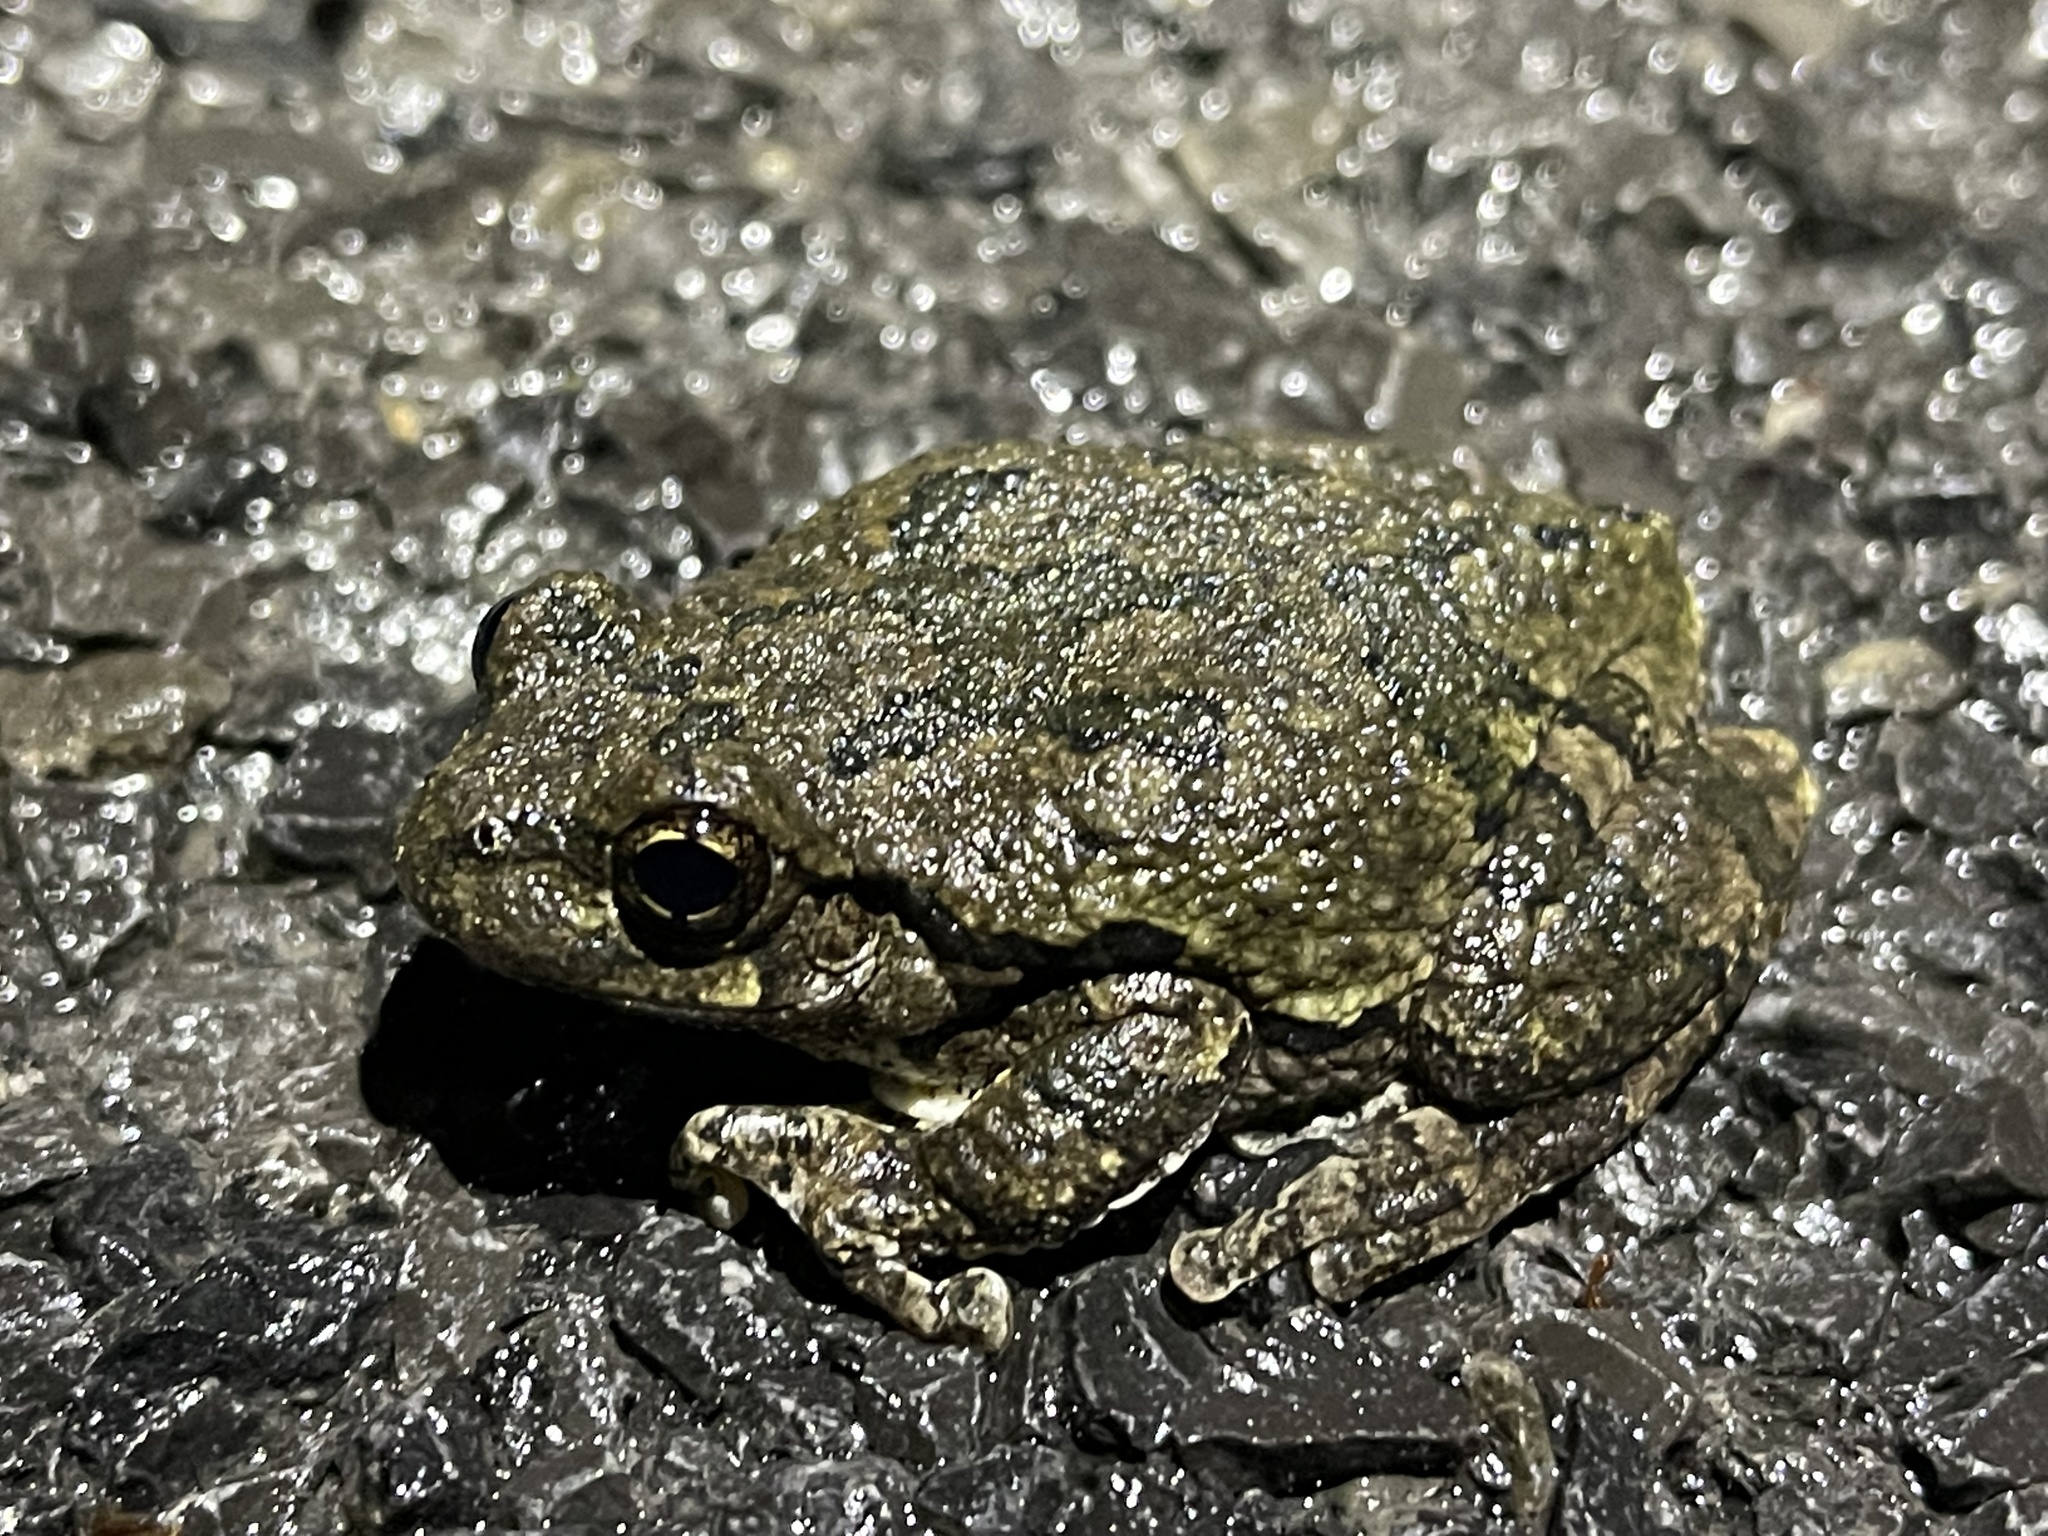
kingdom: Animalia
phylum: Chordata
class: Amphibia
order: Anura
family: Hylidae
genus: Dryophytes
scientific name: Dryophytes versicolor
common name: Gray treefrog
